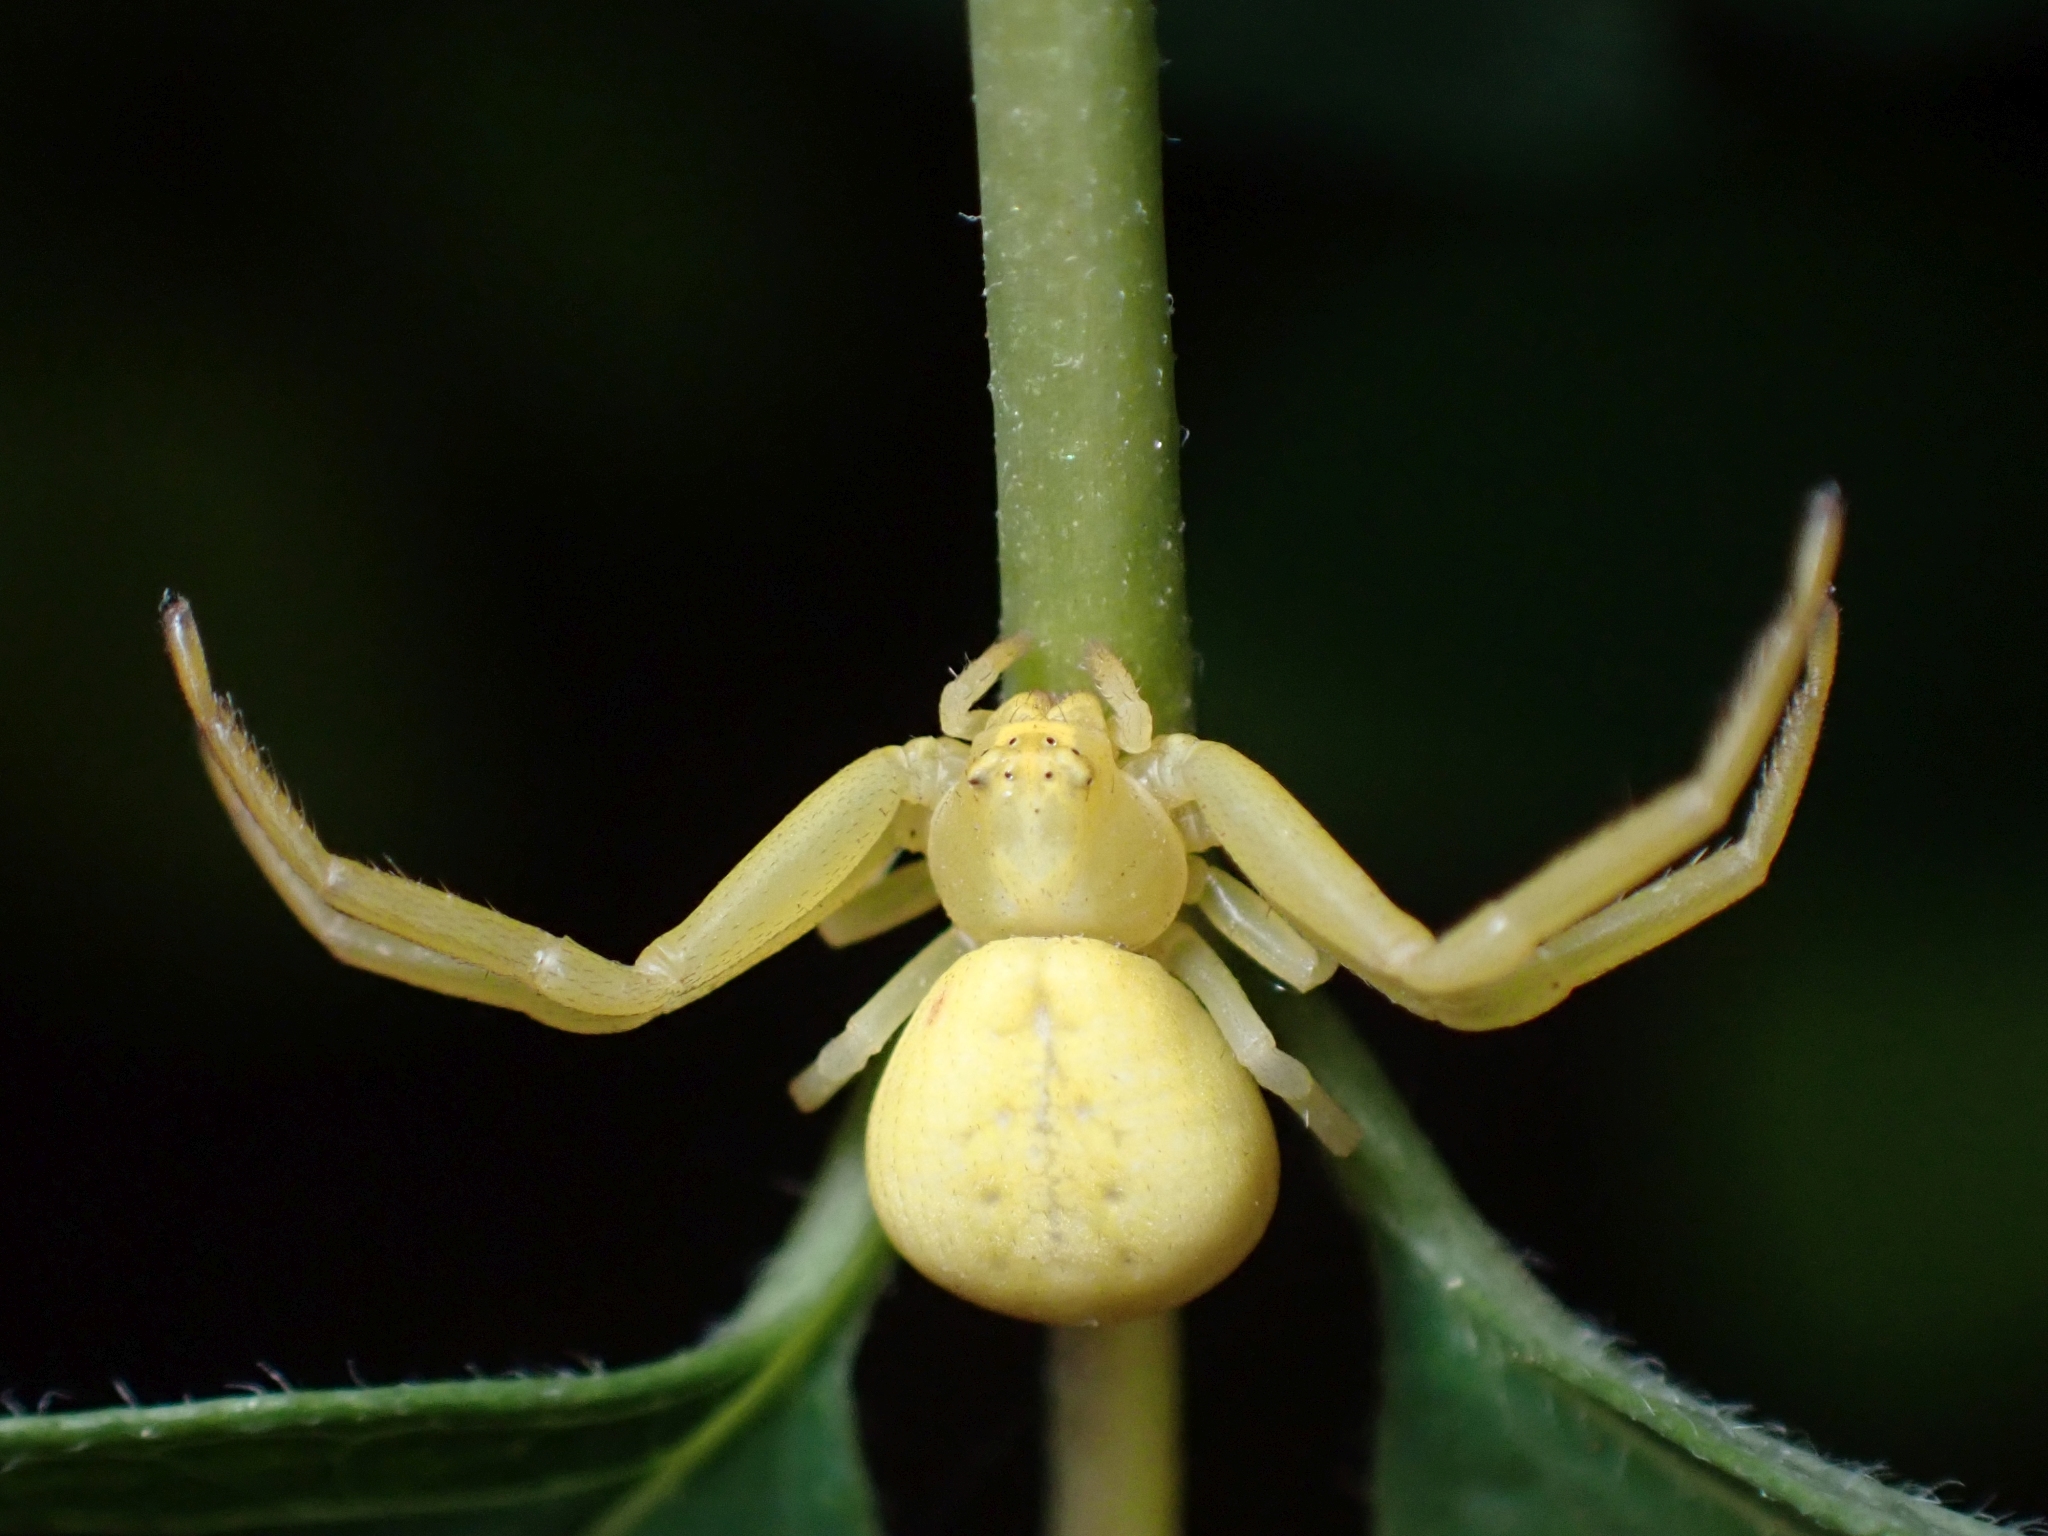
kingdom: Animalia
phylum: Arthropoda
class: Arachnida
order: Araneae
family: Thomisidae
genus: Misumena
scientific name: Misumena vatia
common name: Goldenrod crab spider
